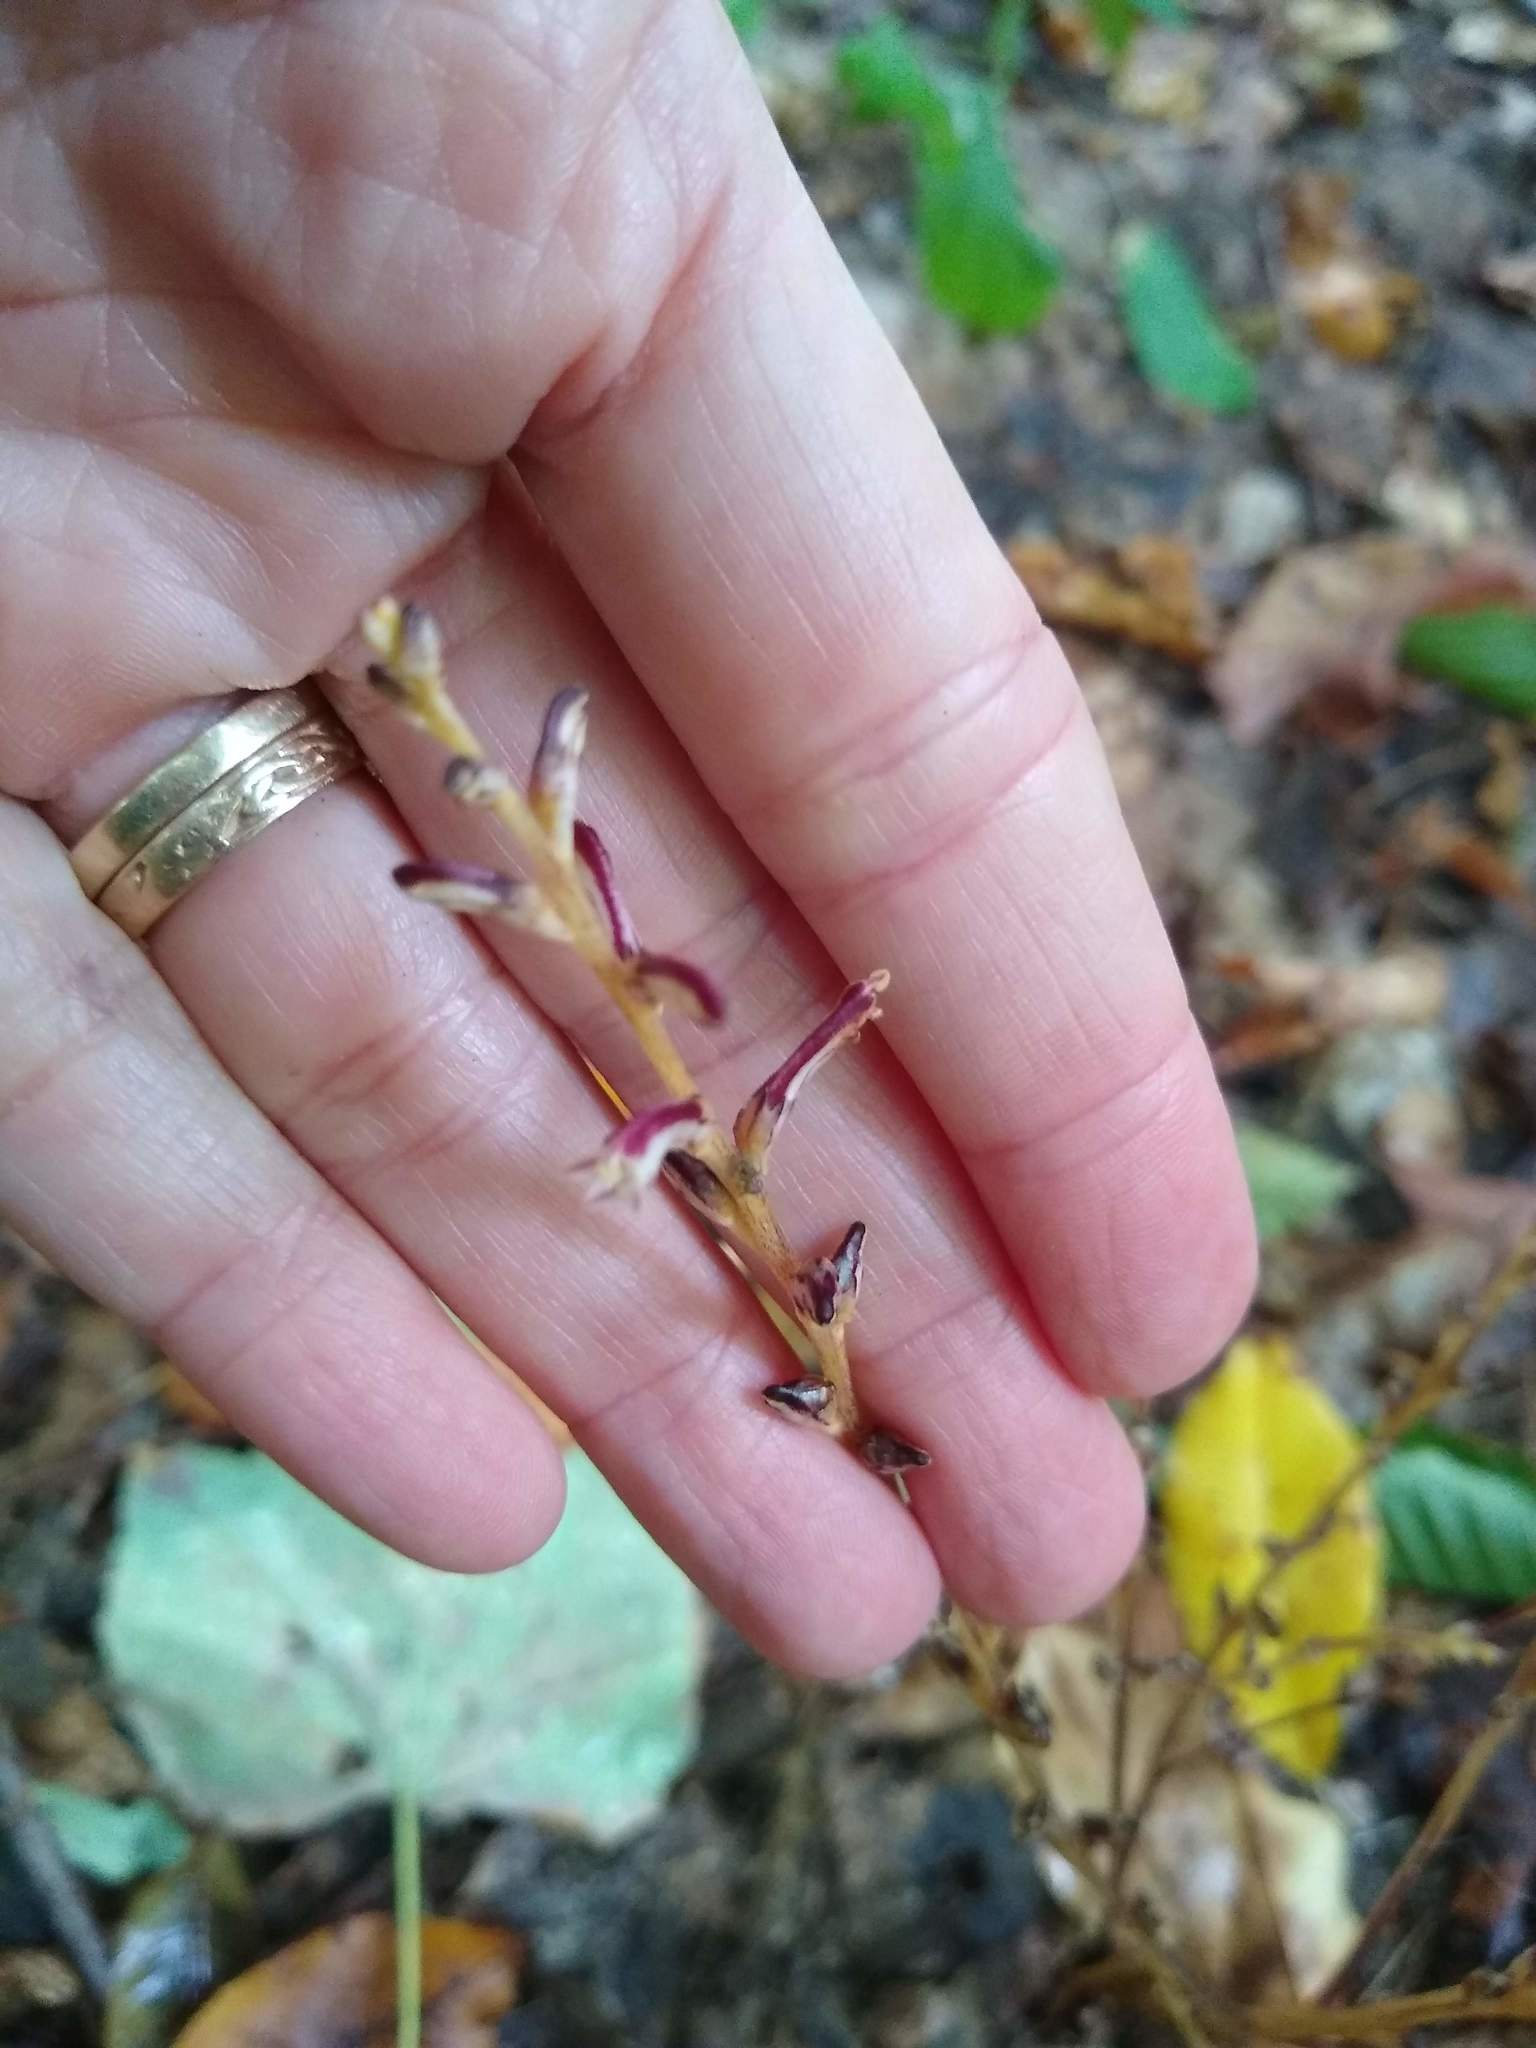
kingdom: Plantae
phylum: Tracheophyta
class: Magnoliopsida
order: Lamiales
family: Orobanchaceae
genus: Epifagus
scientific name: Epifagus virginiana
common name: Beechdrops
